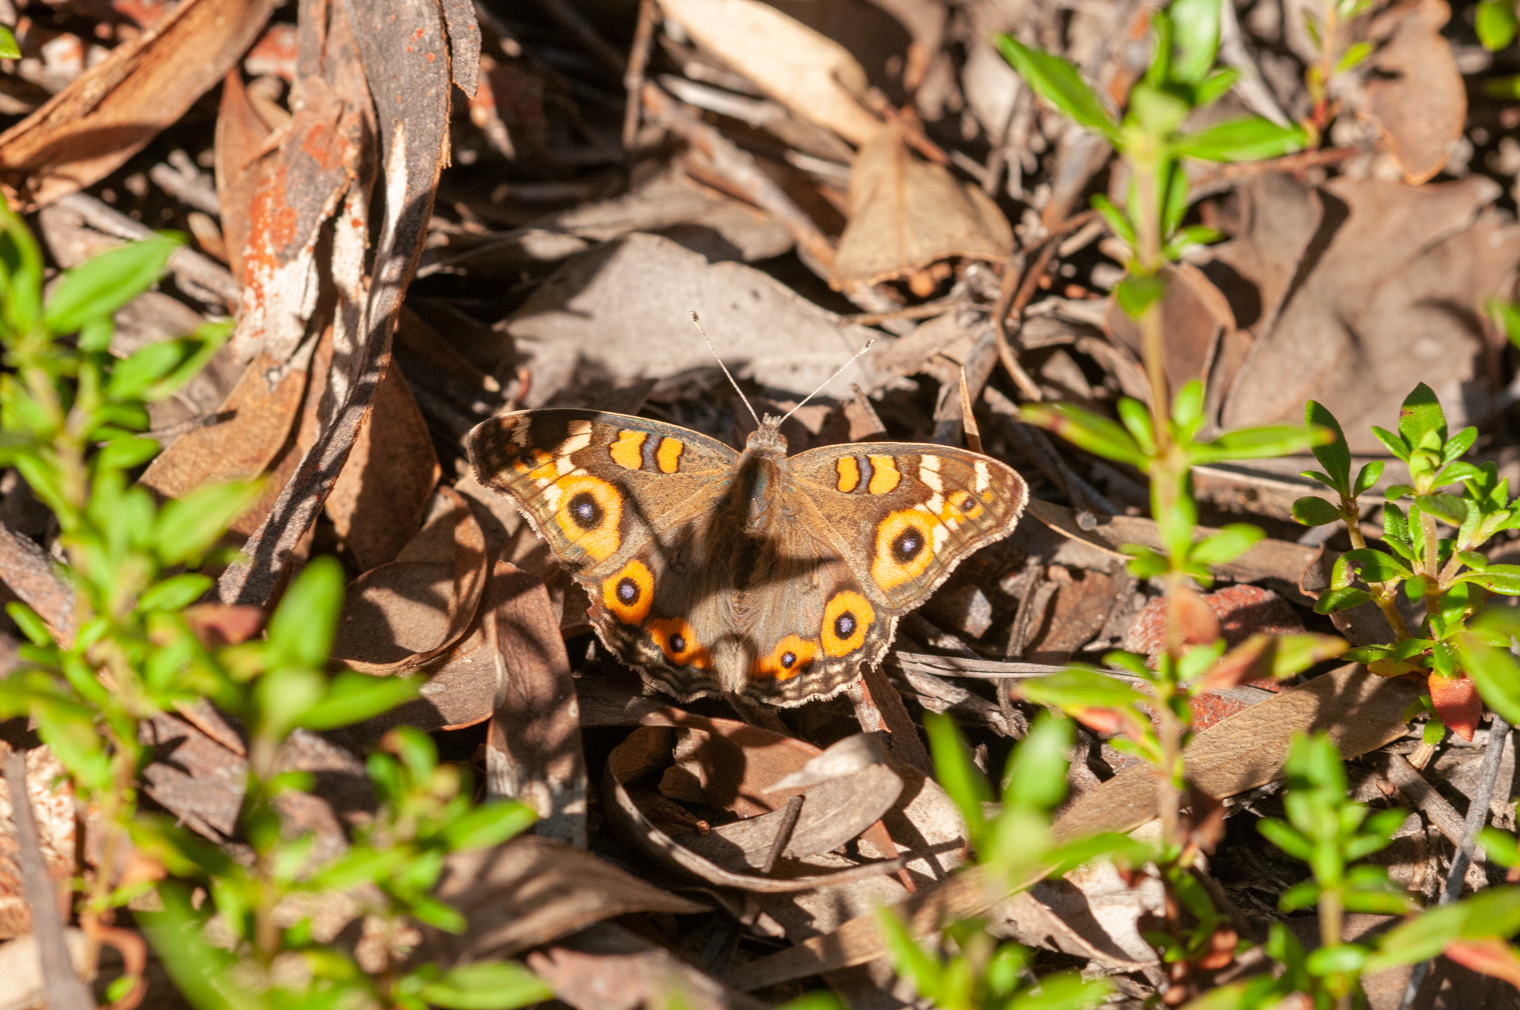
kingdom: Animalia
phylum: Arthropoda
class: Insecta
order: Lepidoptera
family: Nymphalidae
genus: Junonia
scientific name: Junonia villida
